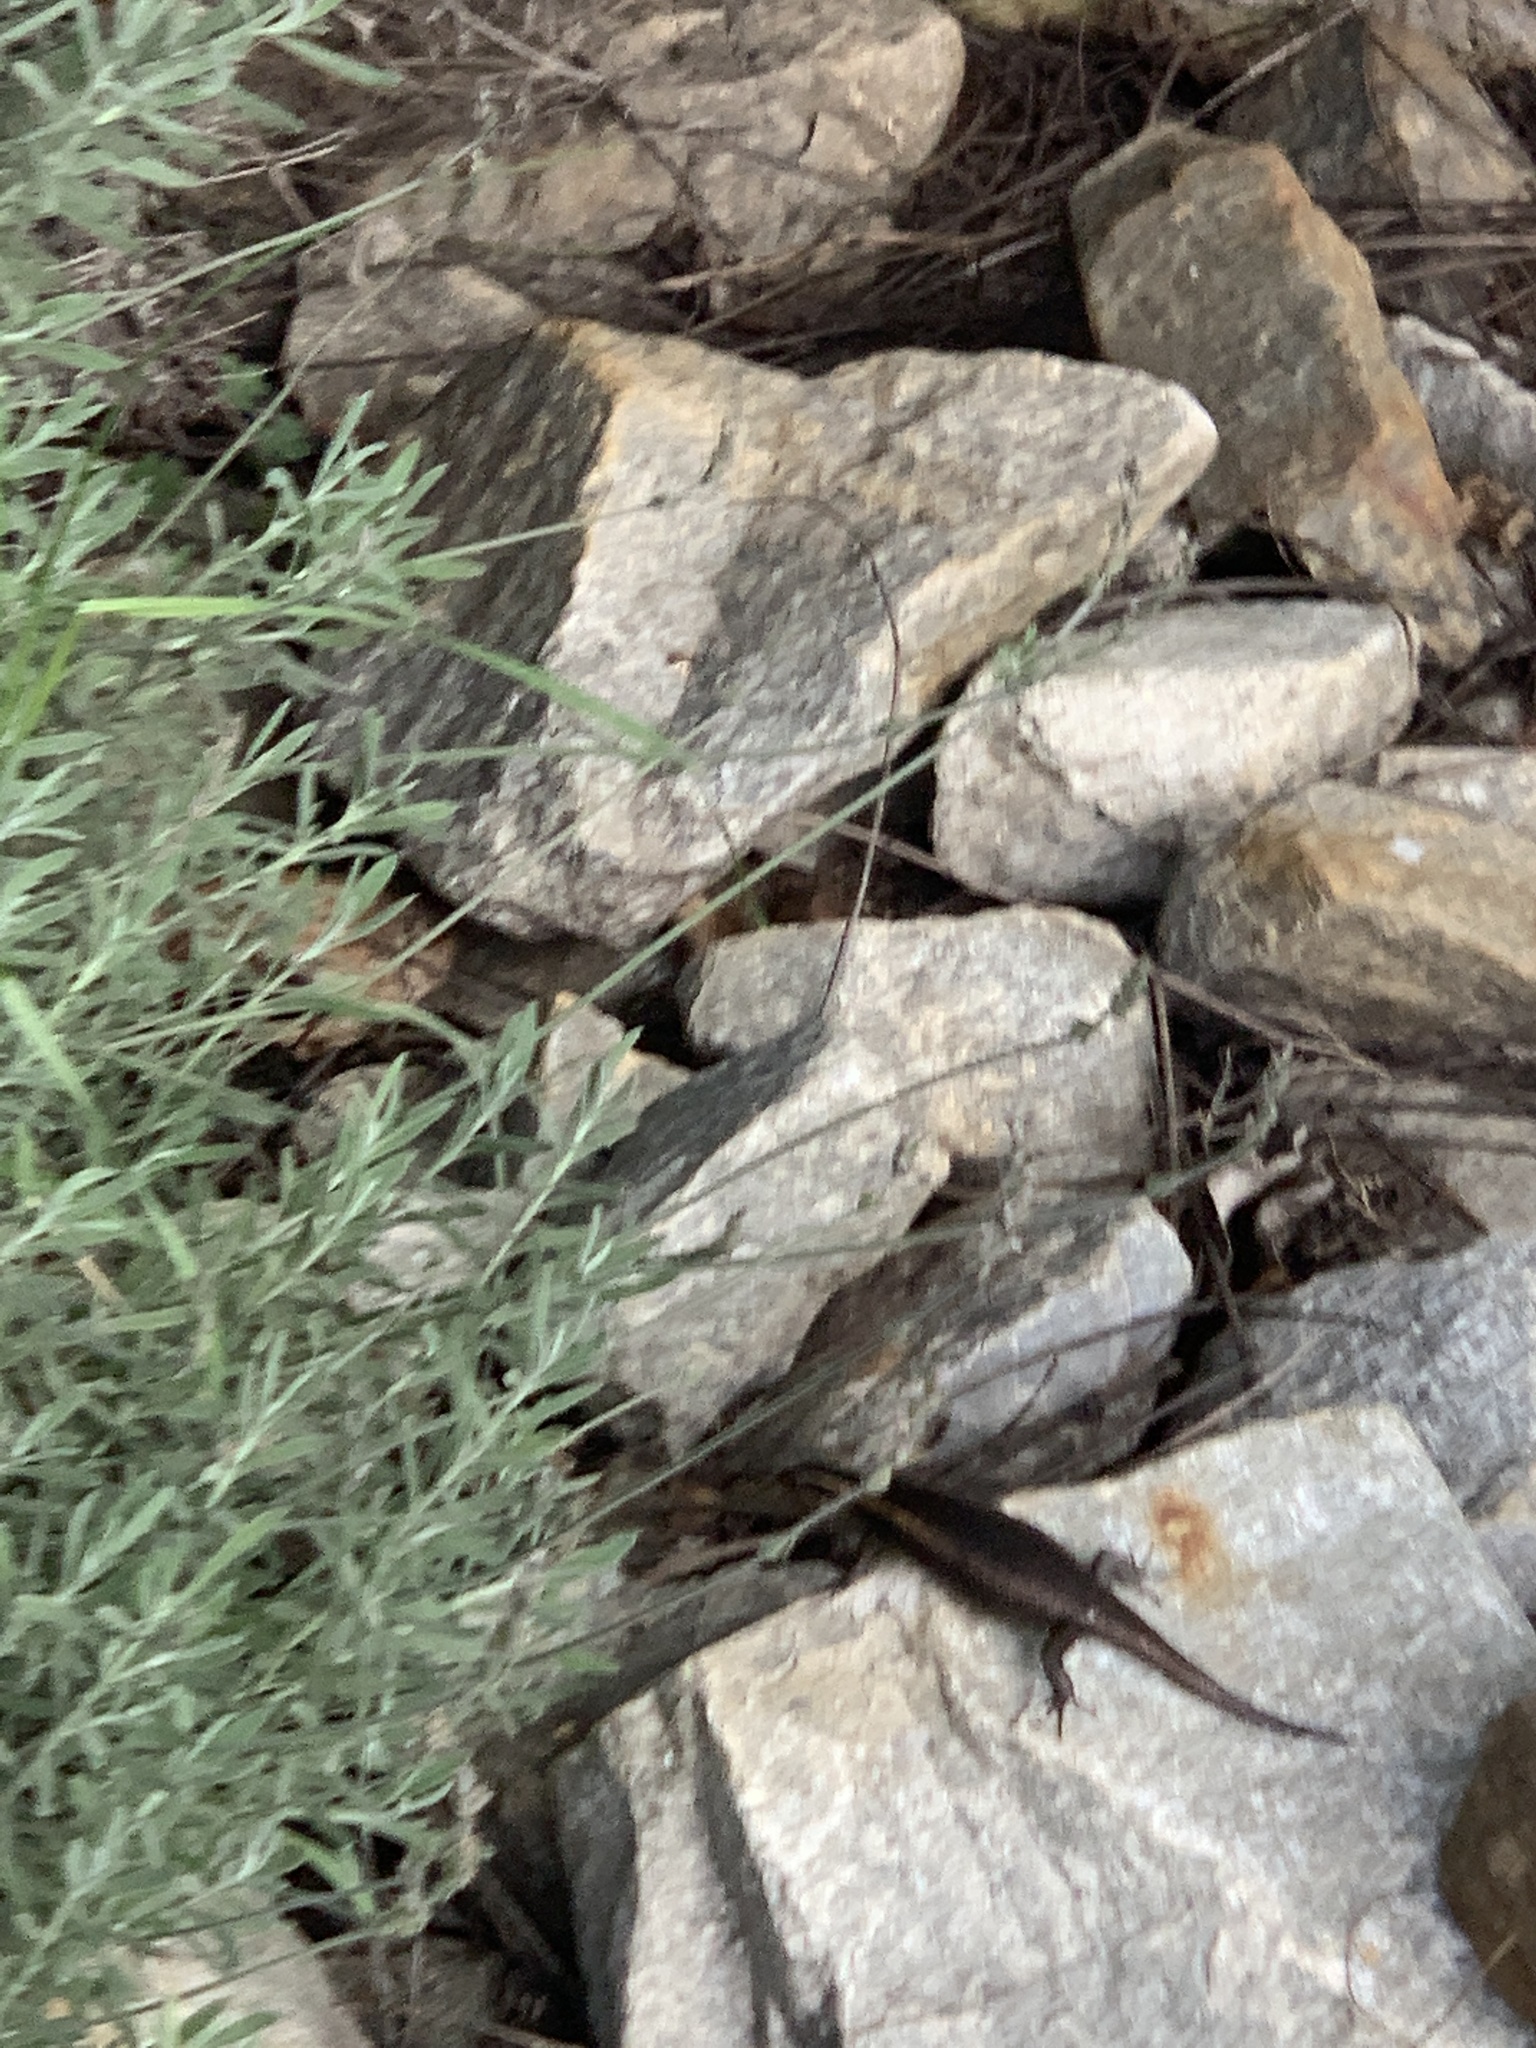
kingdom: Animalia
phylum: Chordata
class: Squamata
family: Scincidae
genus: Trachylepis
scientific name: Trachylepis punctatissima
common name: Montane speckled skink
